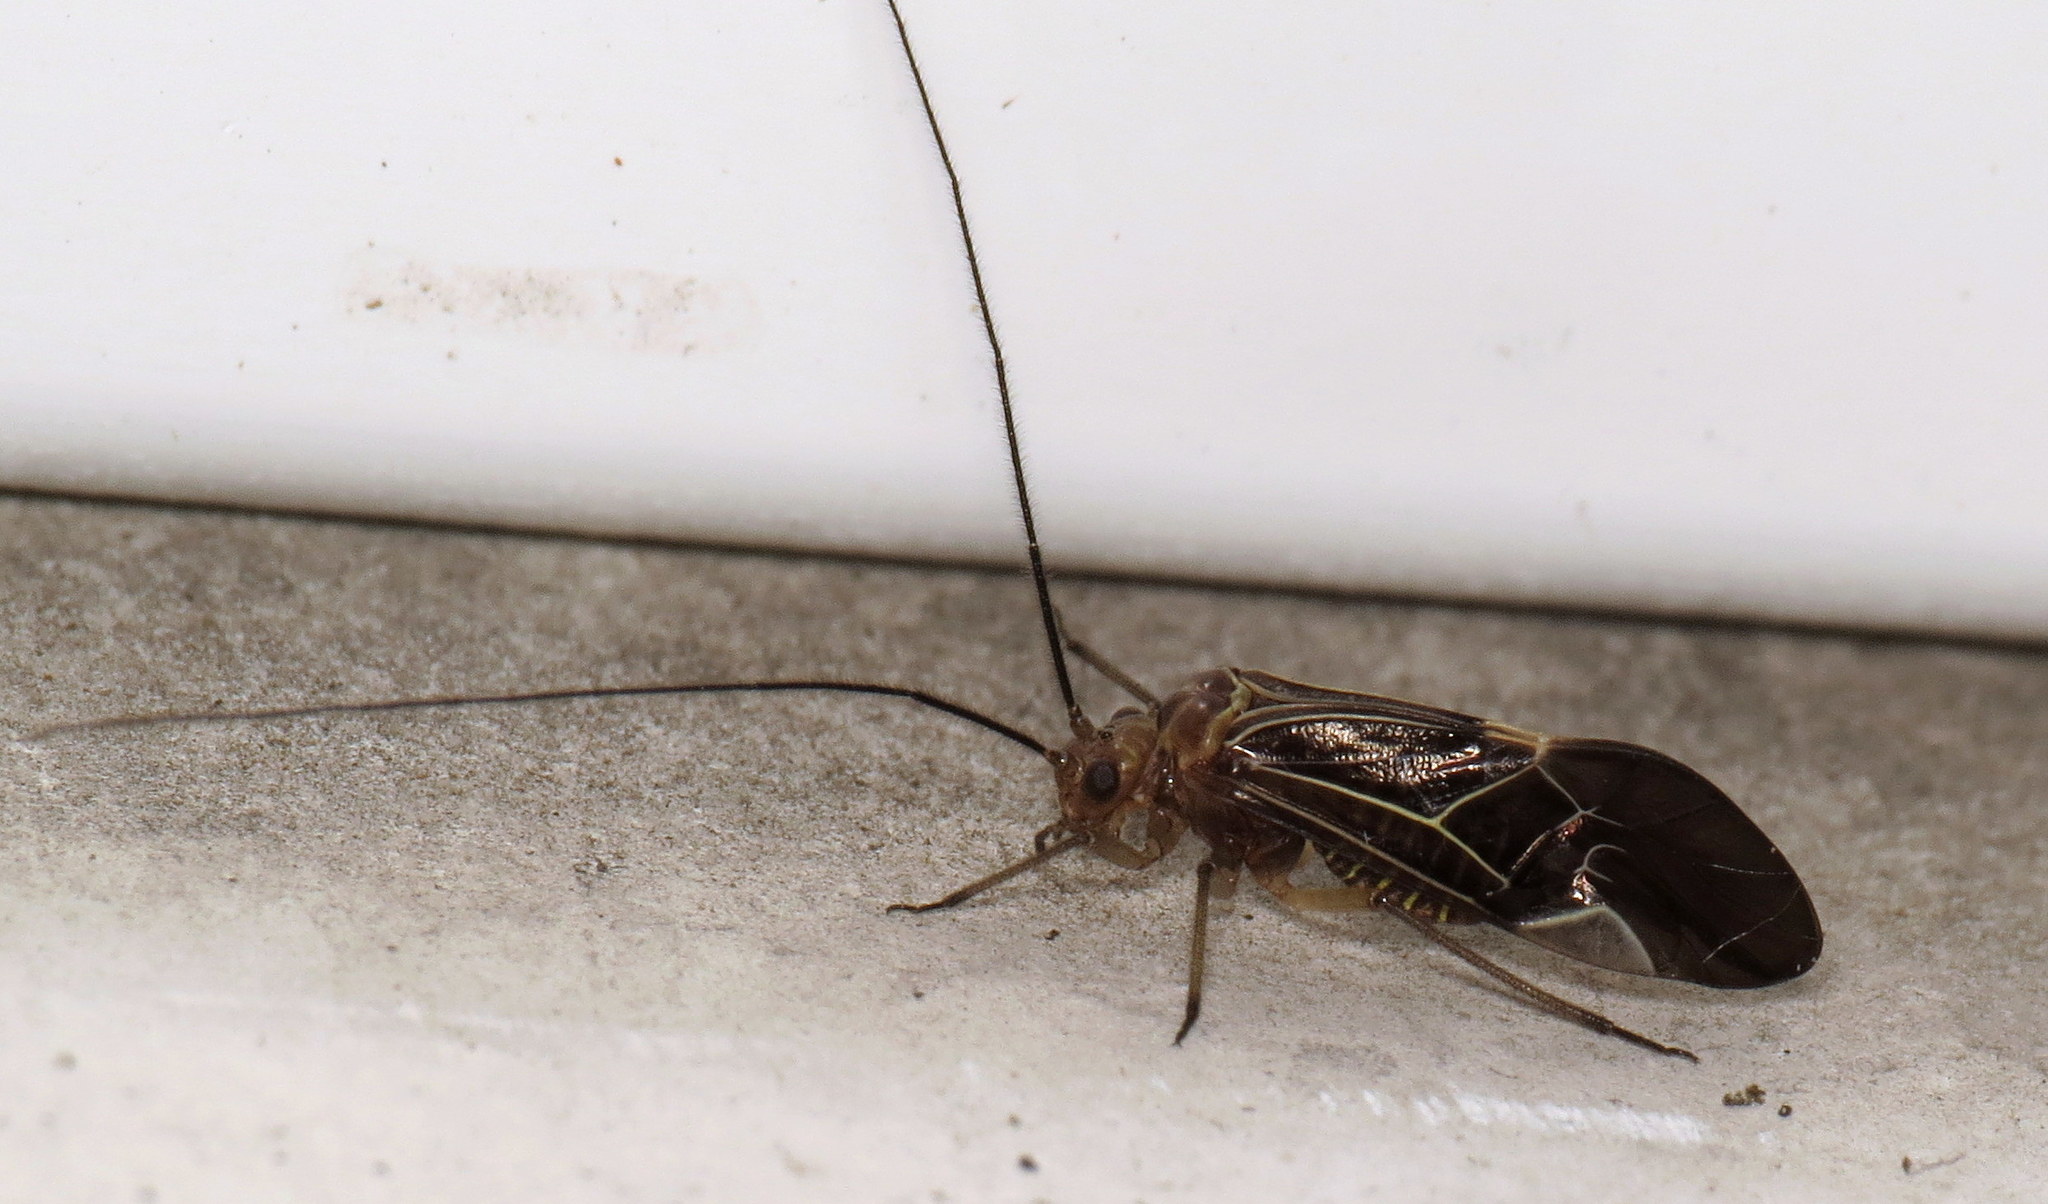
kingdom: Animalia
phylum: Arthropoda
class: Insecta
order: Psocodea
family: Psocidae
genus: Cerastipsocus
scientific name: Cerastipsocus venosus
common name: Tree cattle
